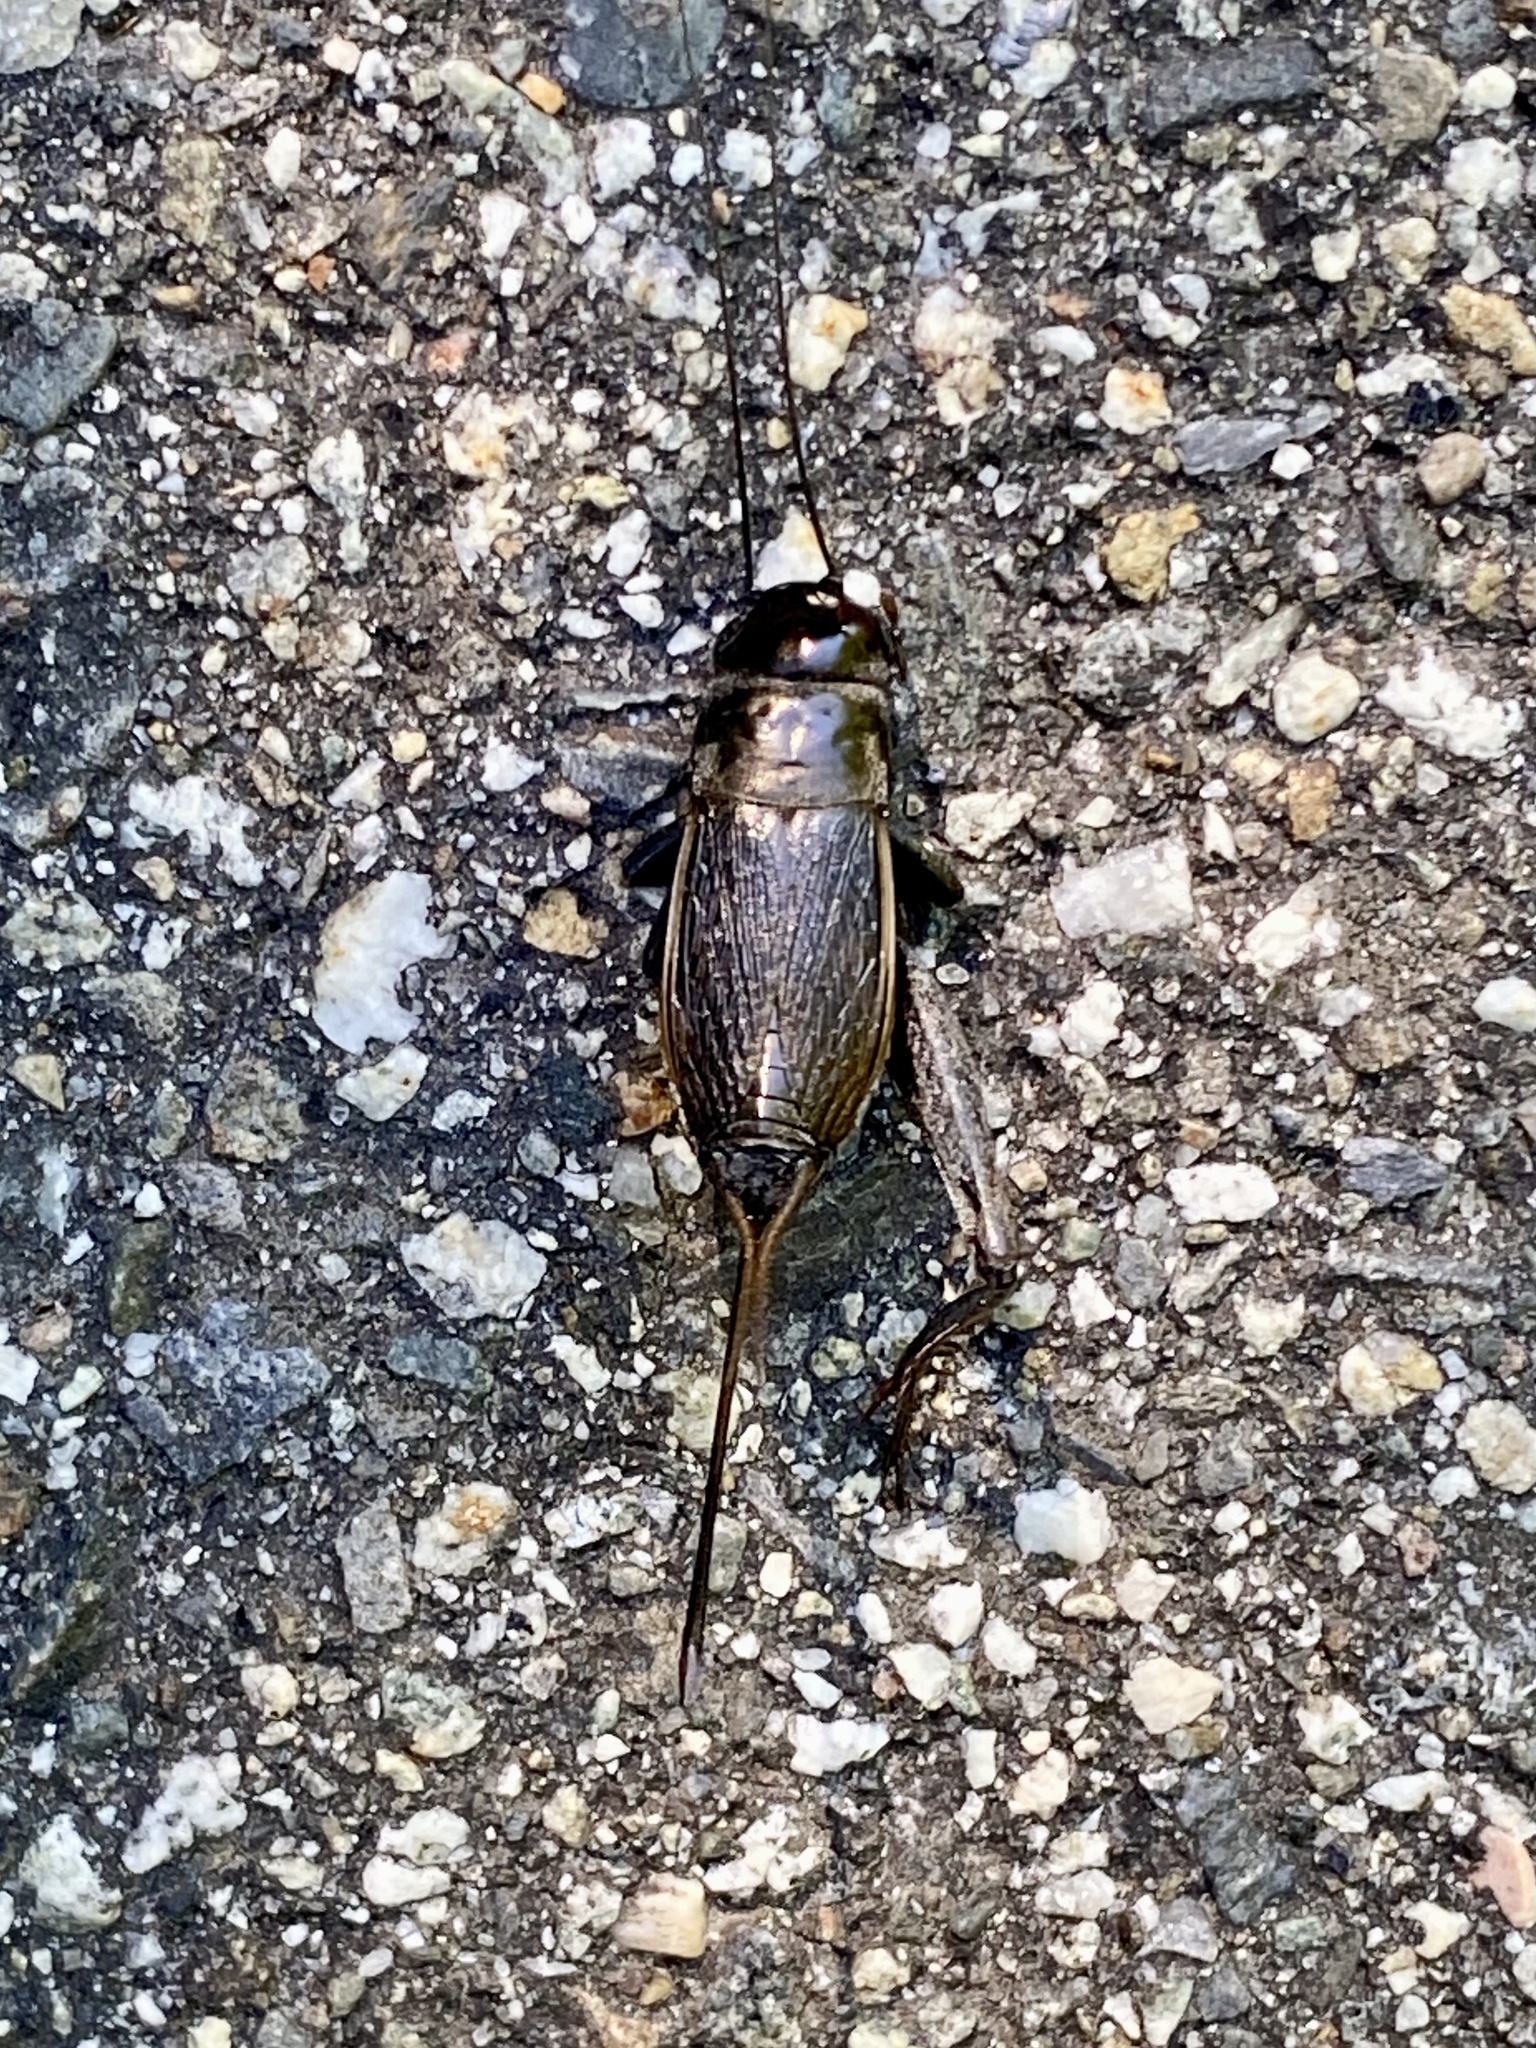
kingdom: Animalia
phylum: Arthropoda
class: Insecta
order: Orthoptera
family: Gryllidae
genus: Gryllus
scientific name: Gryllus pennsylvanicus
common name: Fall field cricket
